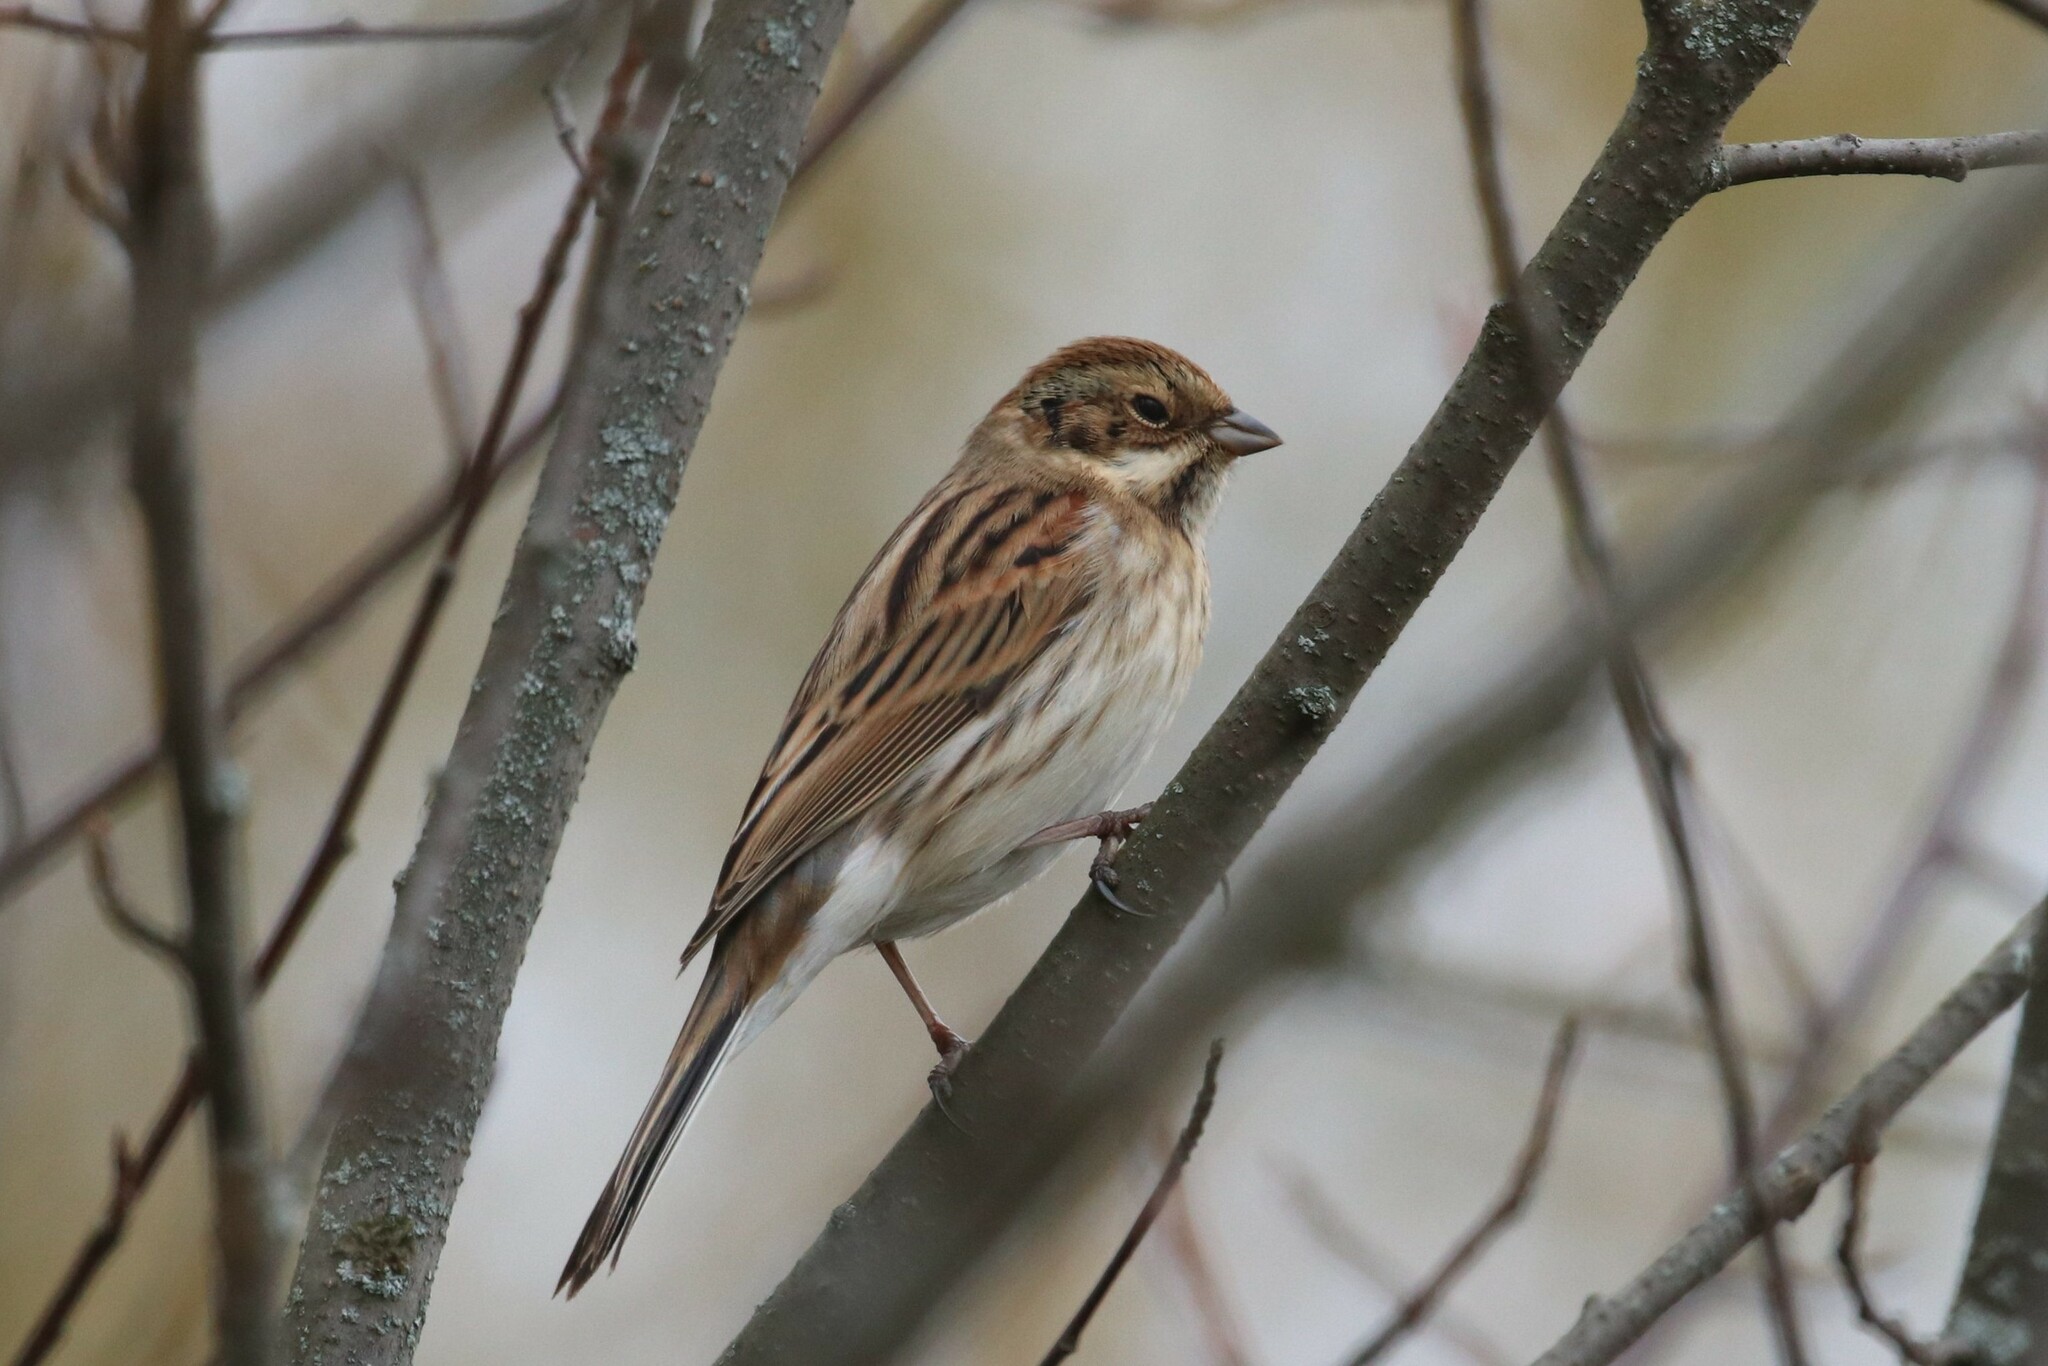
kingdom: Animalia
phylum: Chordata
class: Aves
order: Passeriformes
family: Emberizidae
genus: Emberiza
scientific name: Emberiza schoeniclus
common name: Reed bunting
